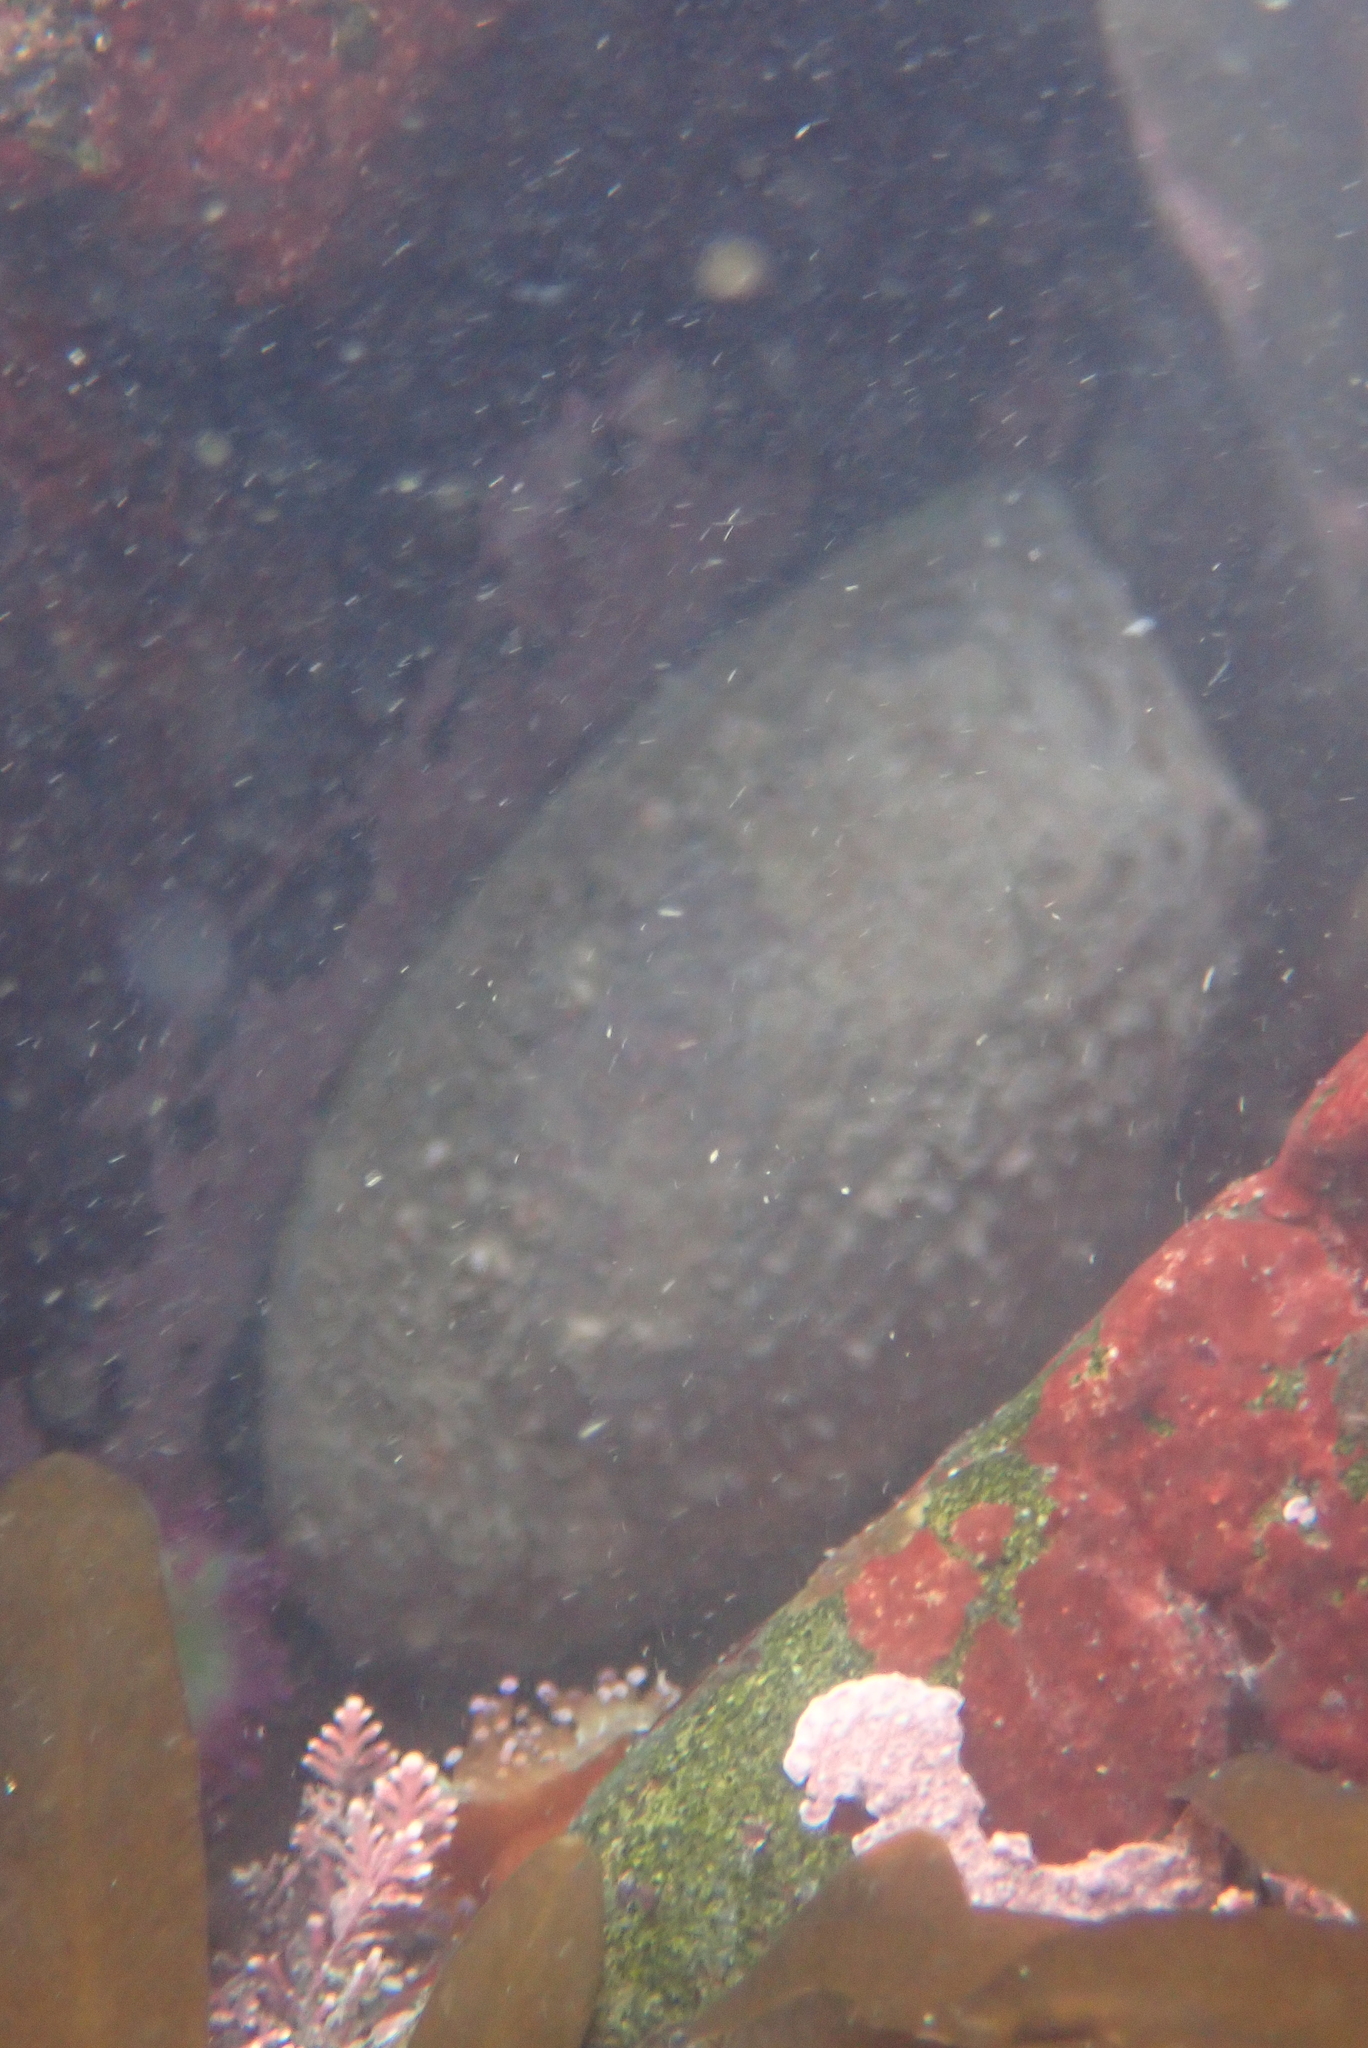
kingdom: Animalia
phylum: Mollusca
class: Gastropoda
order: Lepetellida
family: Haliotidae
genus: Haliotis
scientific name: Haliotis iris
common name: Abalone
